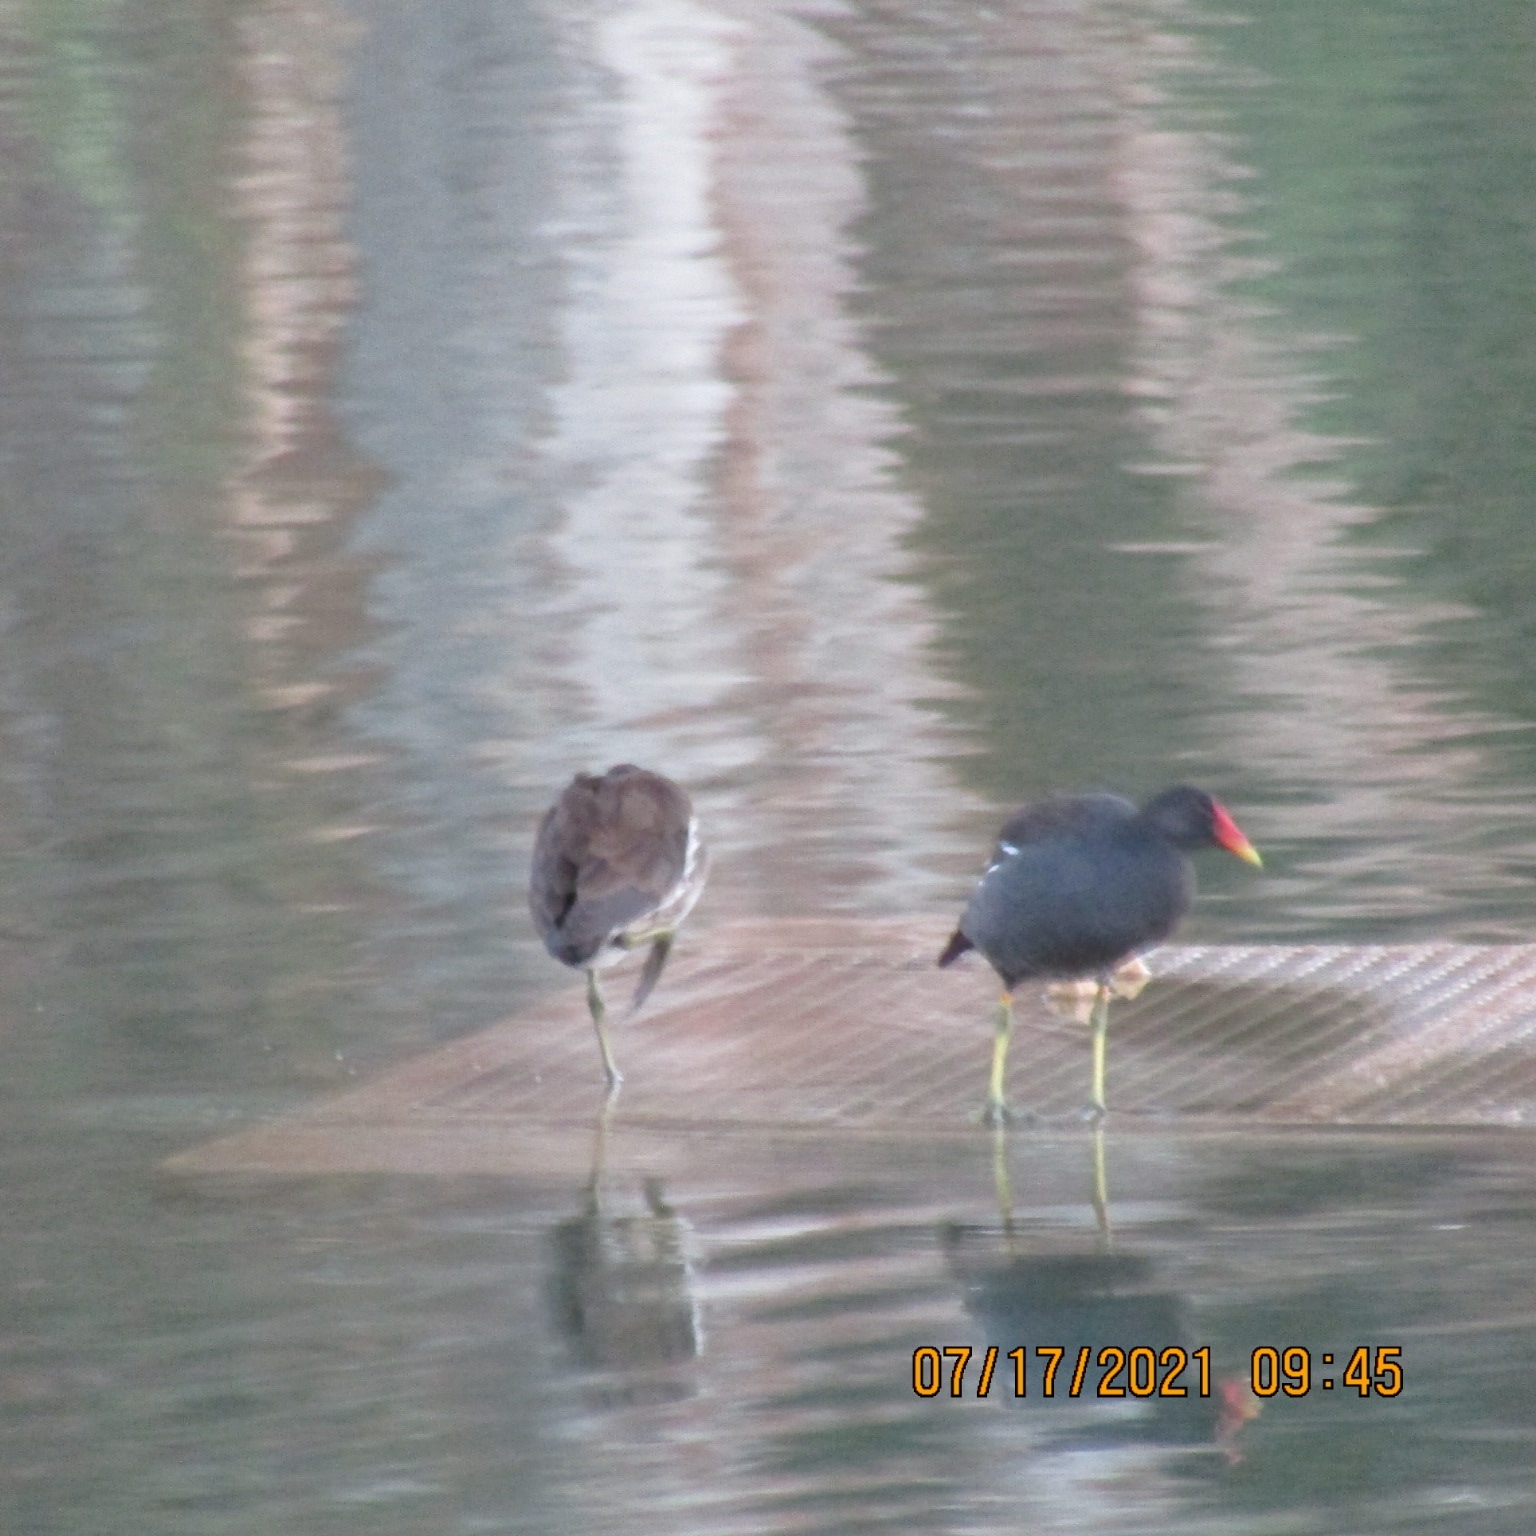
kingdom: Animalia
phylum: Chordata
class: Aves
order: Gruiformes
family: Rallidae
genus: Gallinula
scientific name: Gallinula chloropus
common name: Common moorhen
